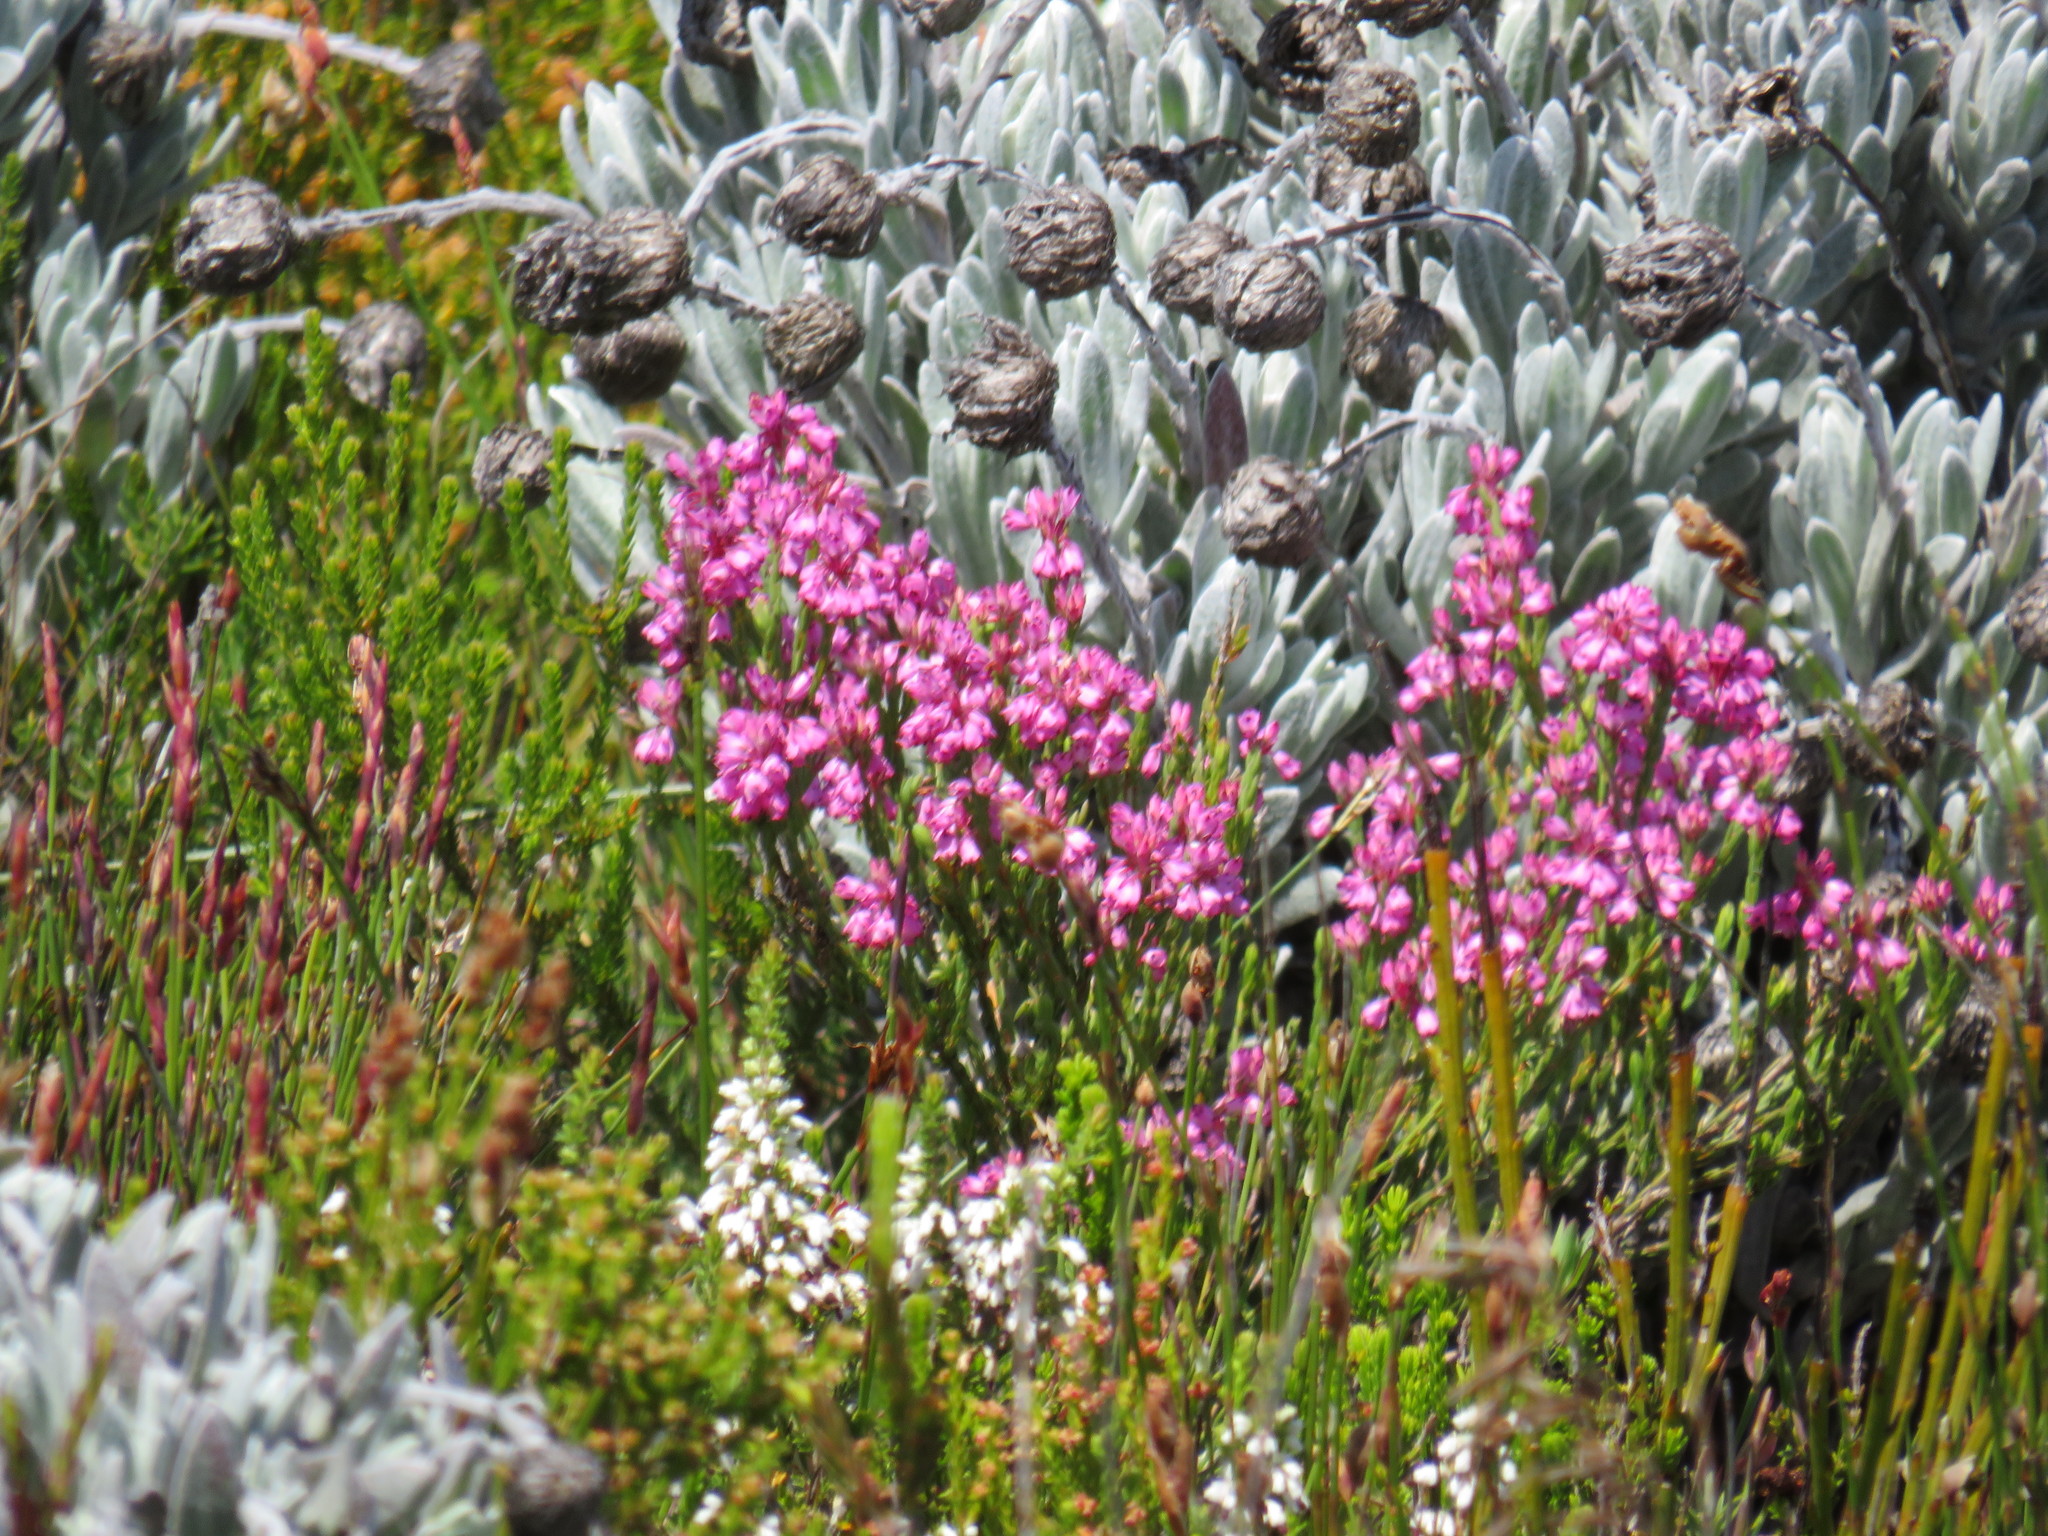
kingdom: Plantae
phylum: Tracheophyta
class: Magnoliopsida
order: Ericales
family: Ericaceae
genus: Erica
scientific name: Erica corifolia
